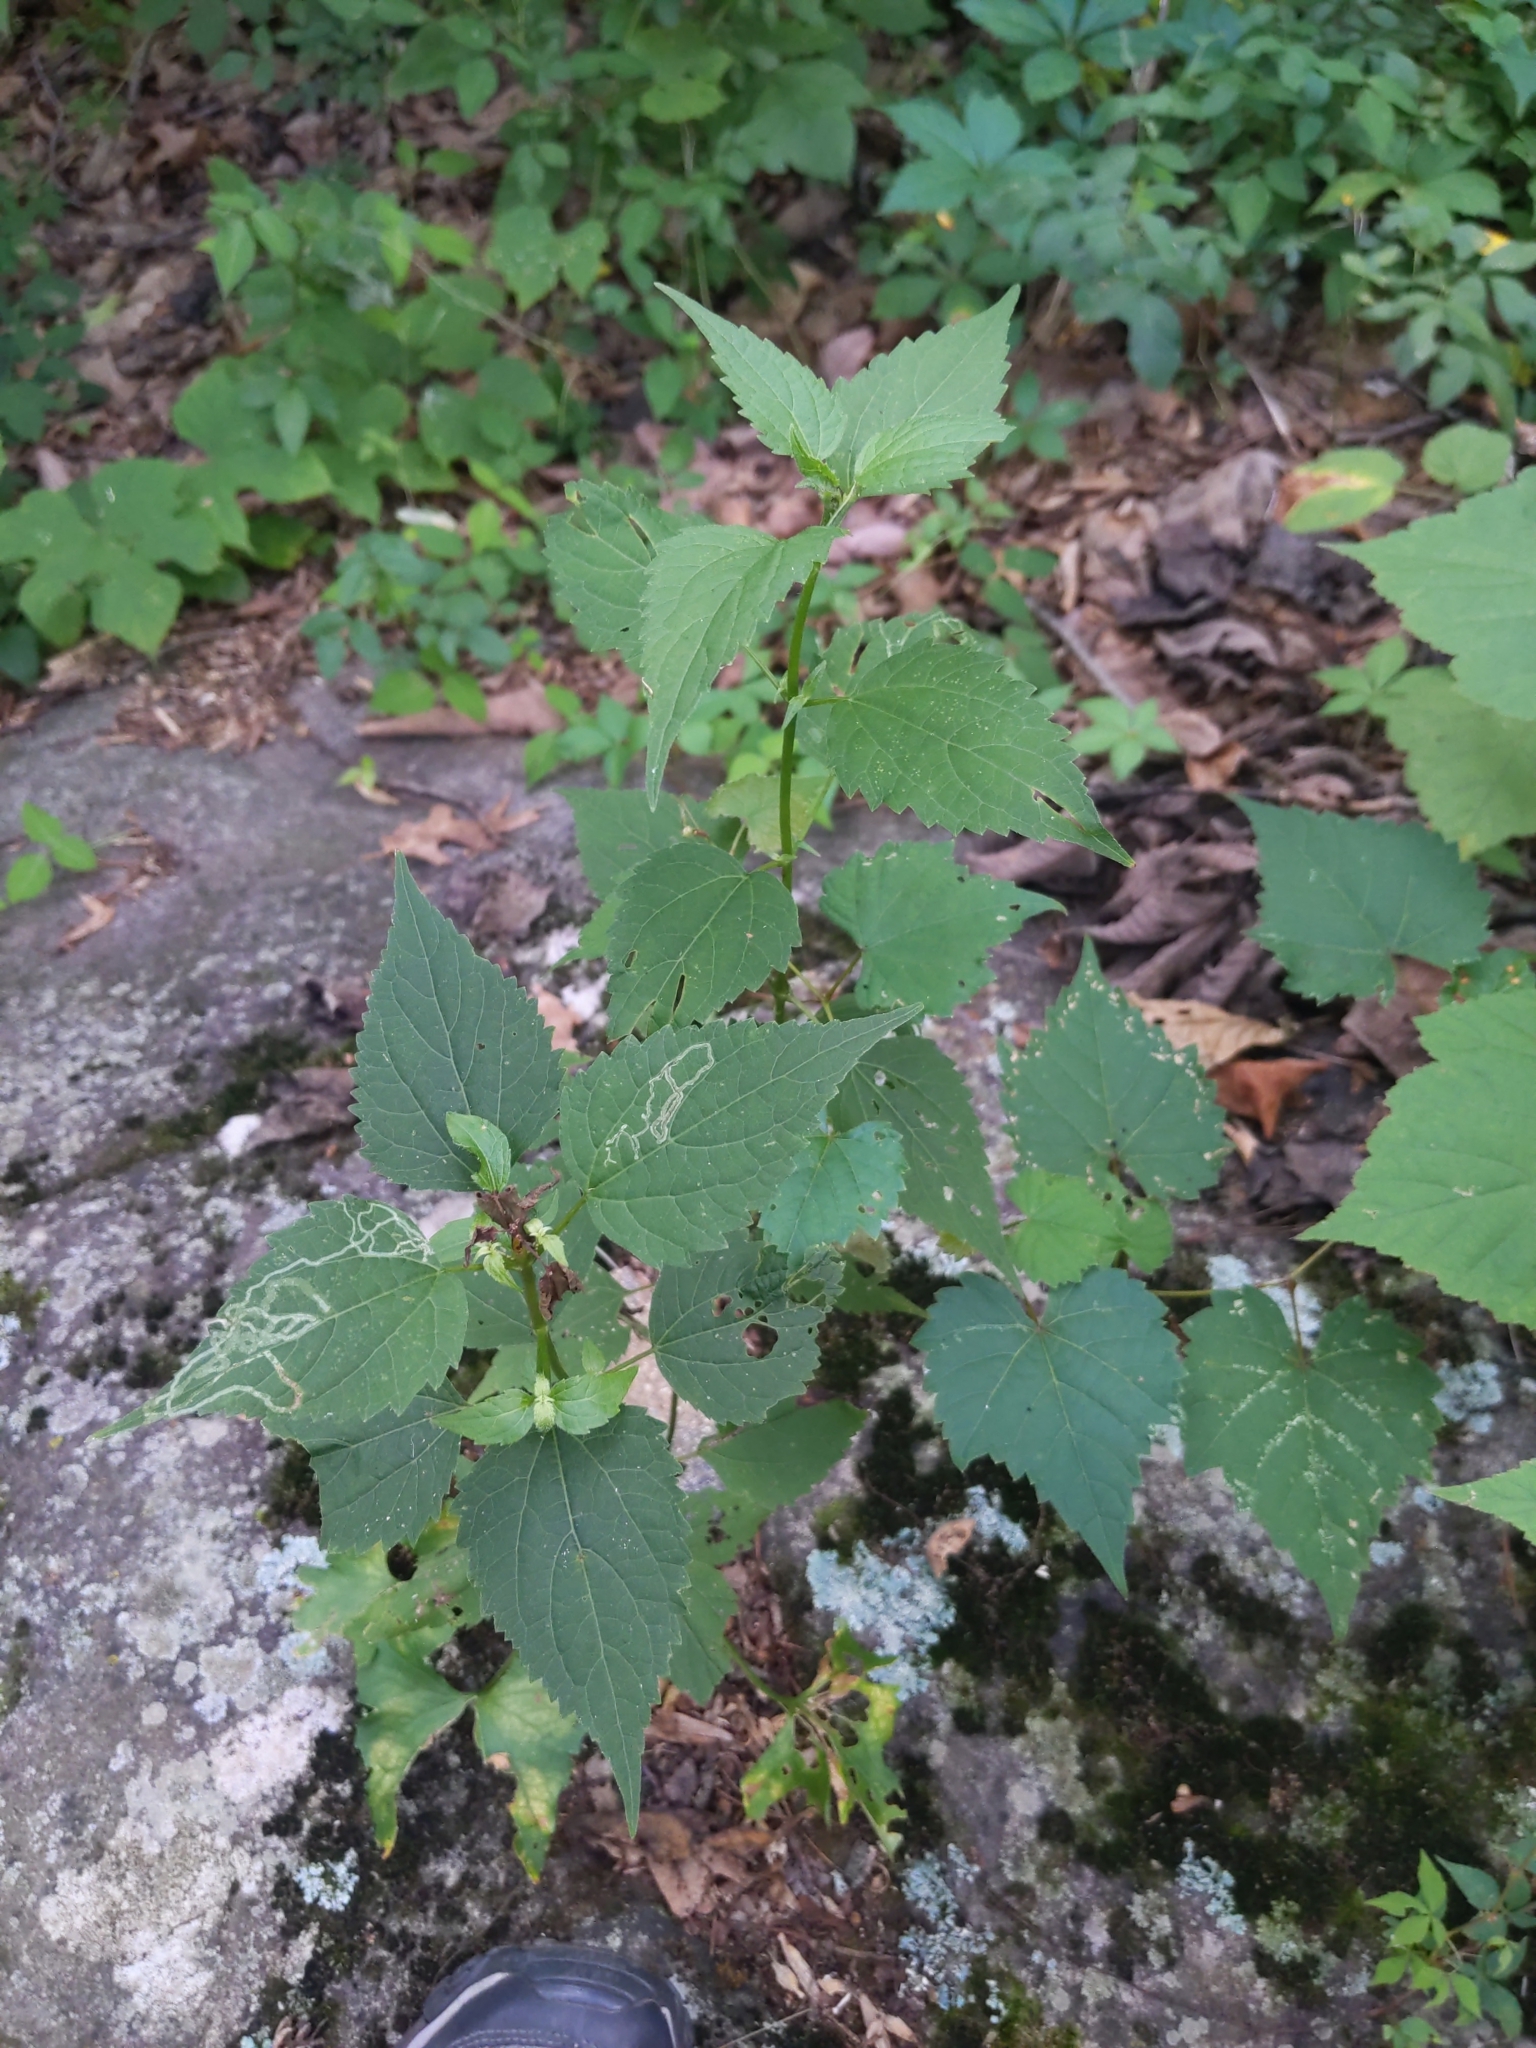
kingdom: Plantae
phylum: Tracheophyta
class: Magnoliopsida
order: Asterales
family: Asteraceae
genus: Ageratina
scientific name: Ageratina altissima
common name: White snakeroot
